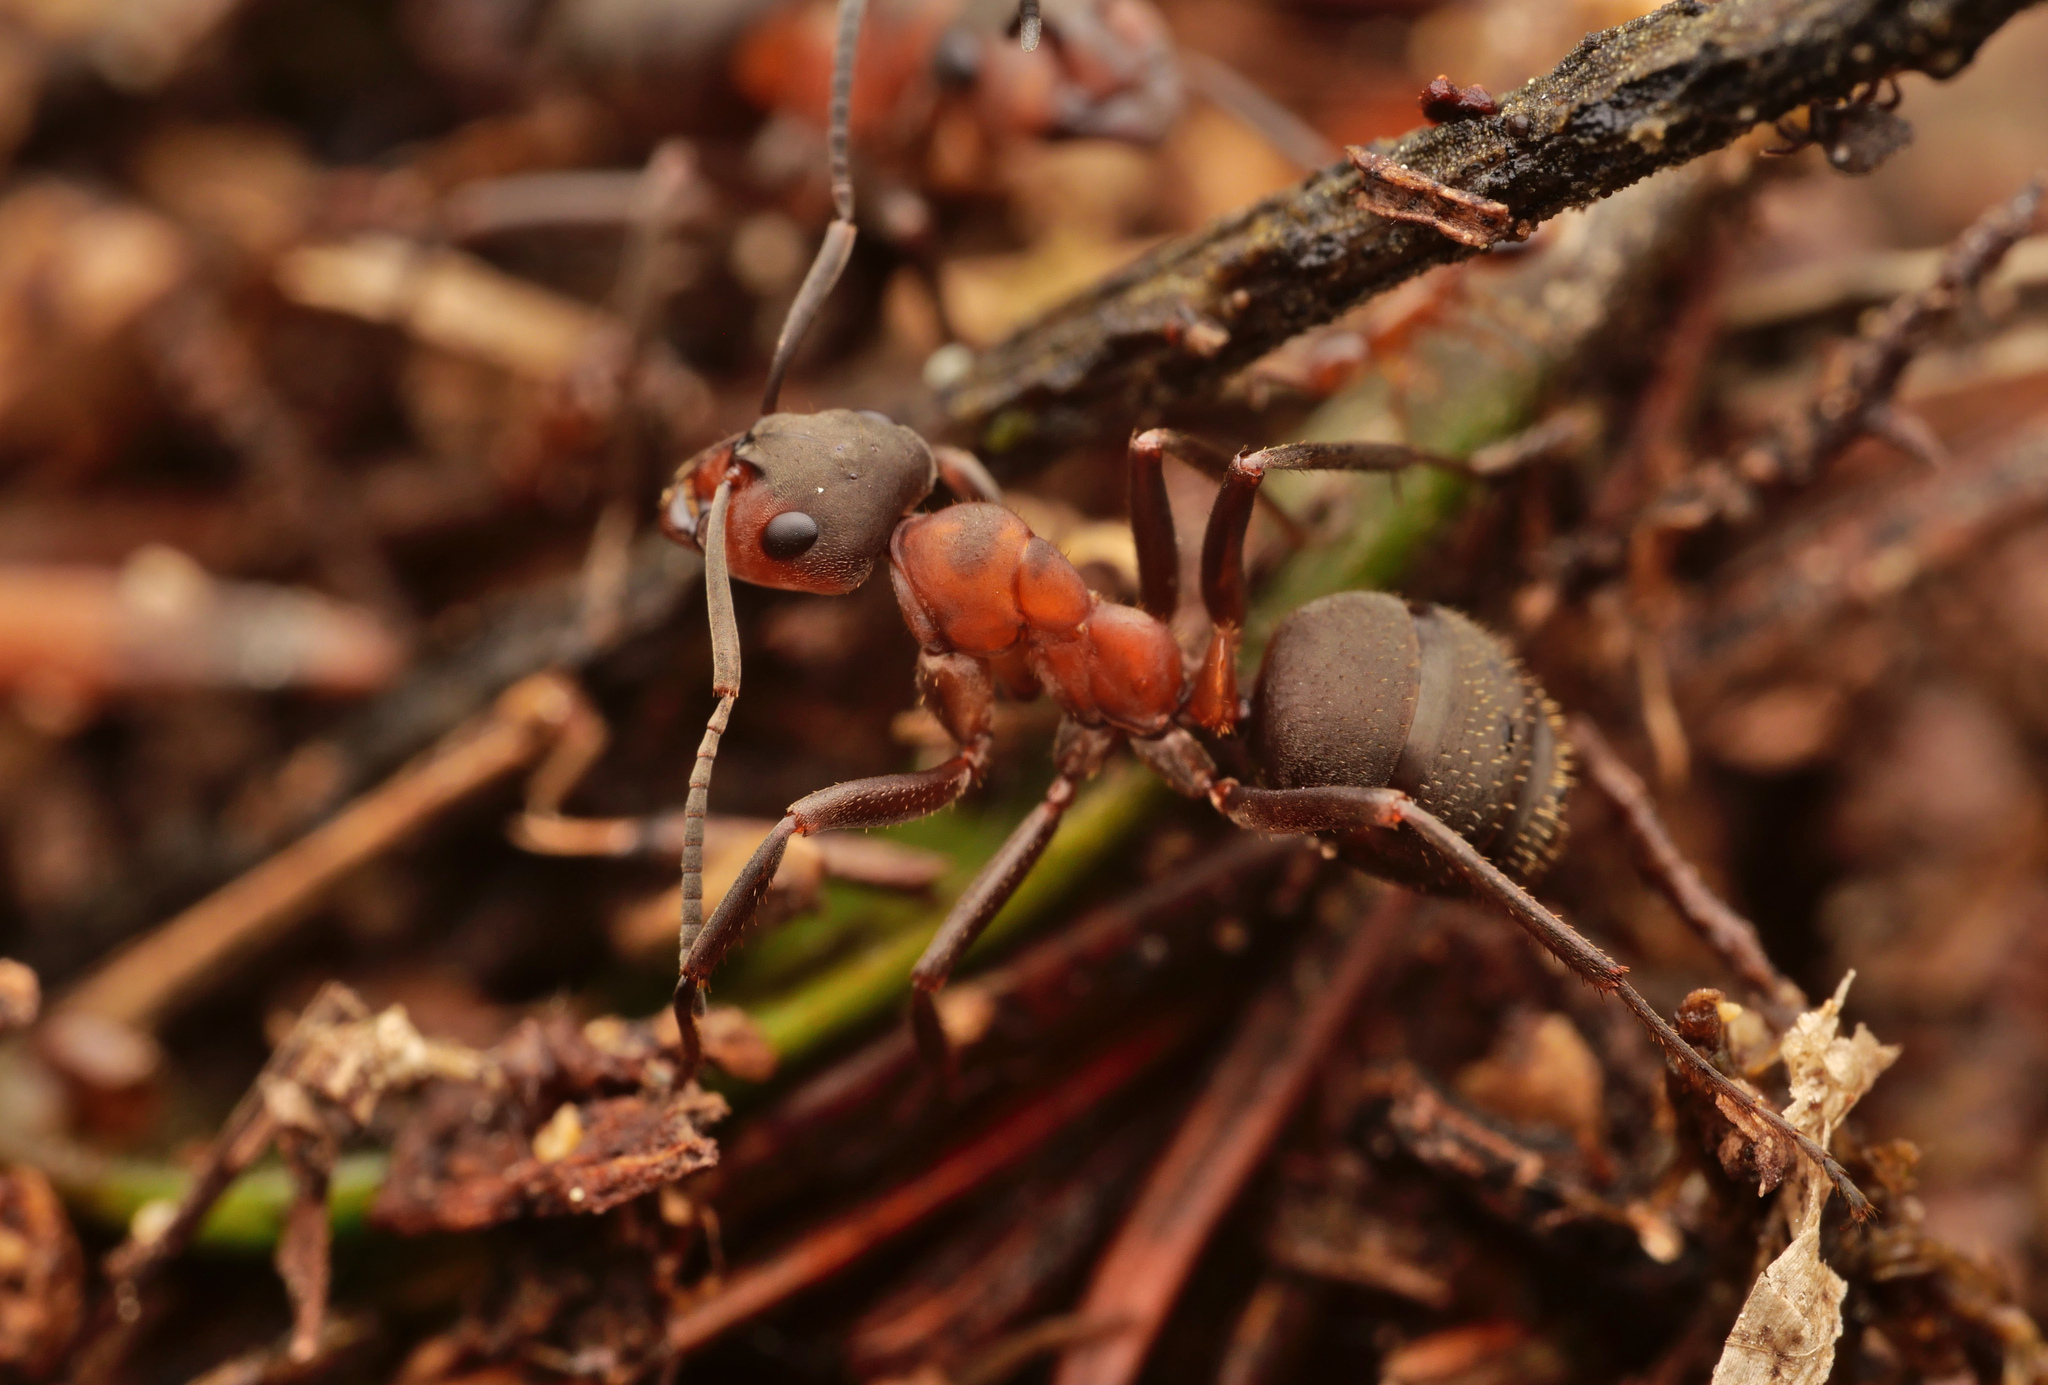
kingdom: Animalia
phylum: Arthropoda
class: Insecta
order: Hymenoptera
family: Formicidae
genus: Formica
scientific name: Formica rufa
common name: Red wood ant
